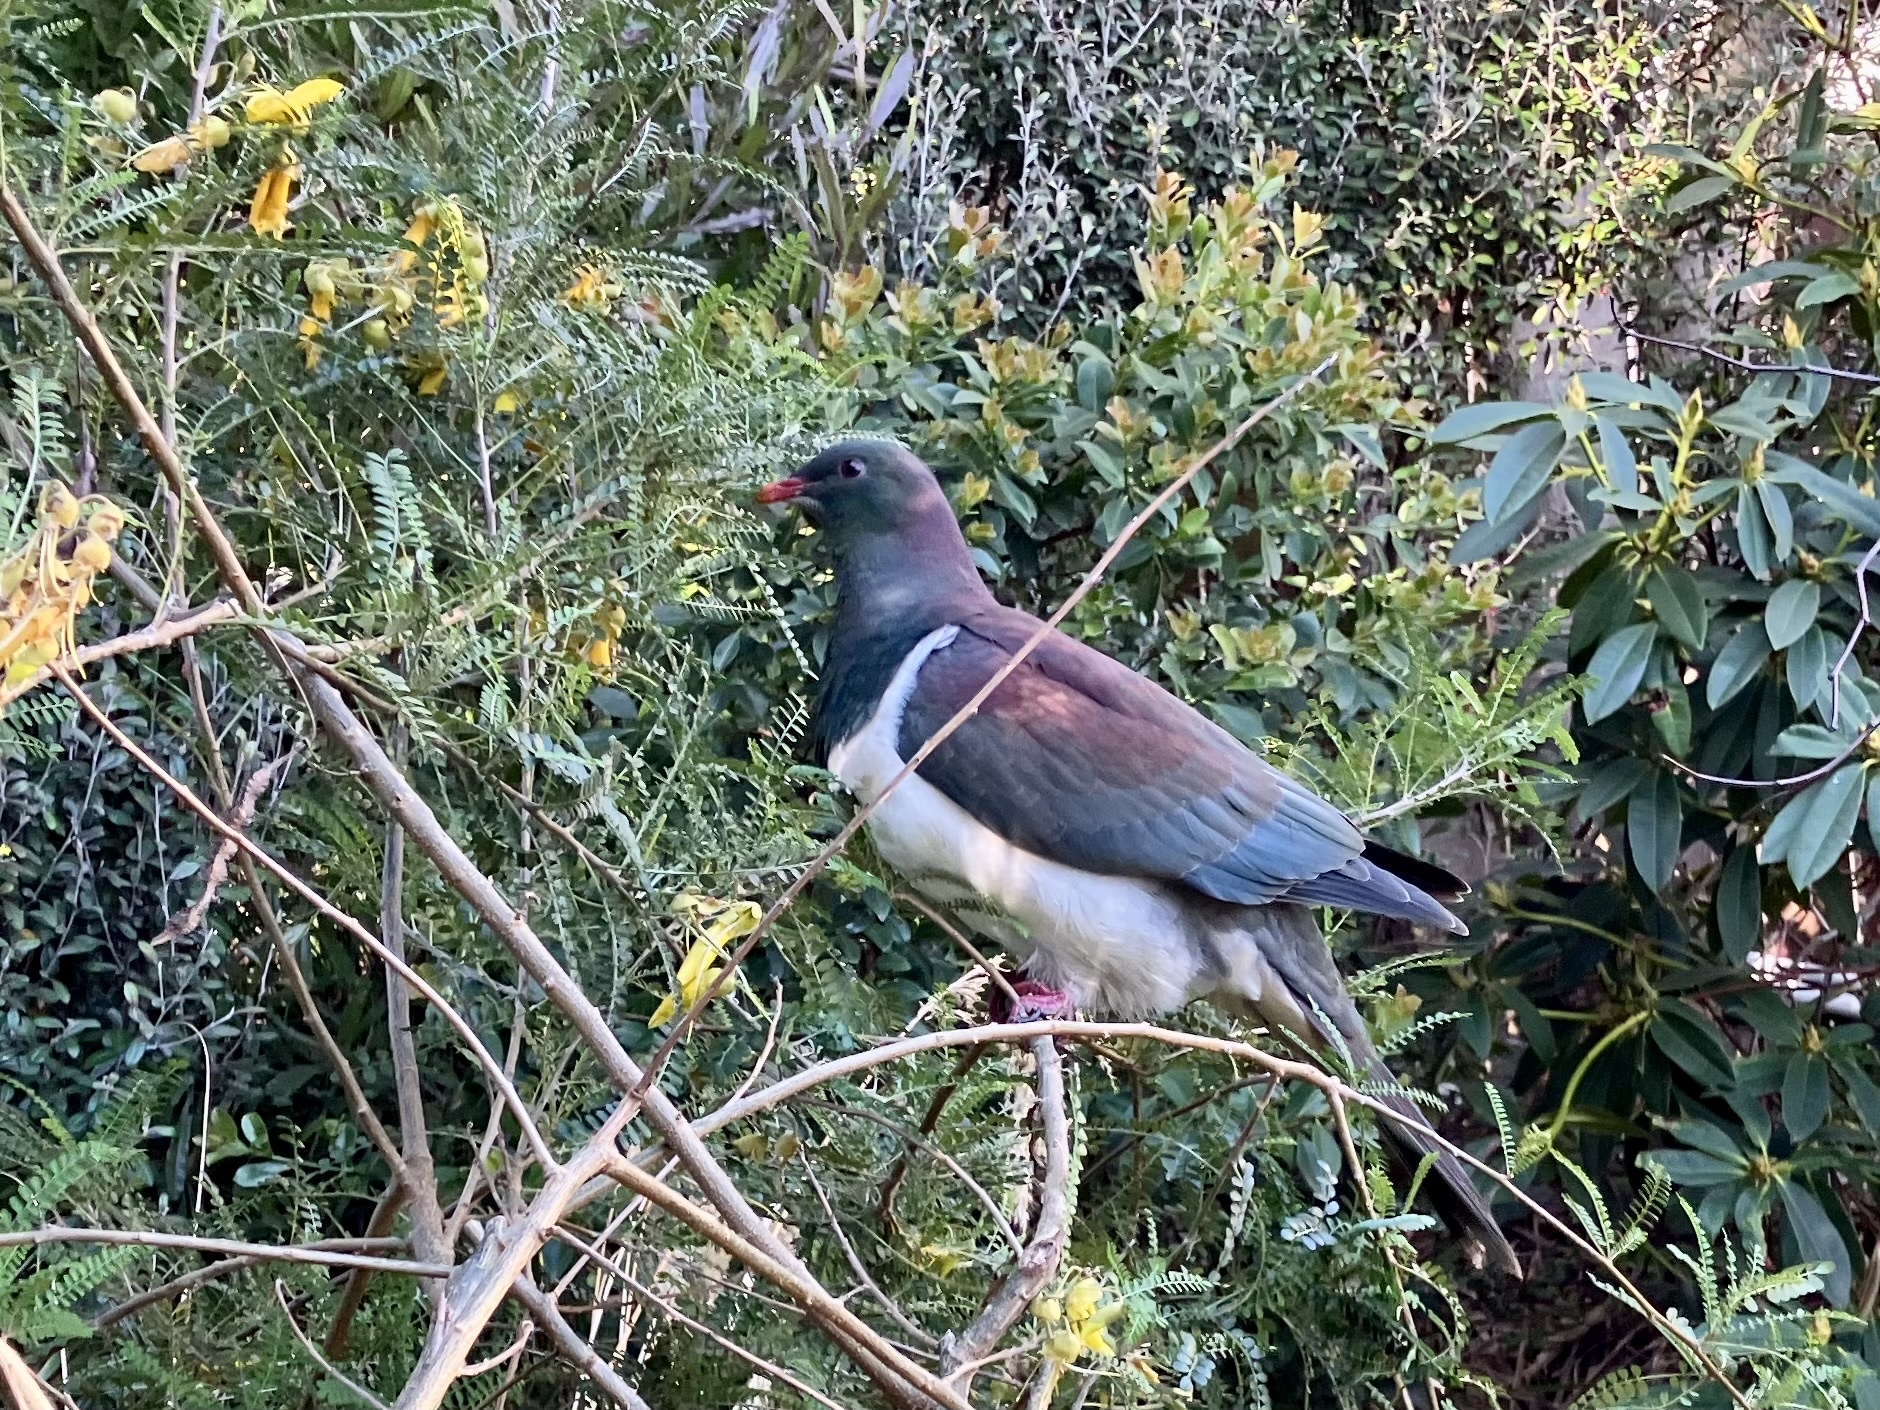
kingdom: Animalia
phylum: Chordata
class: Aves
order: Columbiformes
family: Columbidae
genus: Hemiphaga
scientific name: Hemiphaga novaeseelandiae
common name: New zealand pigeon
